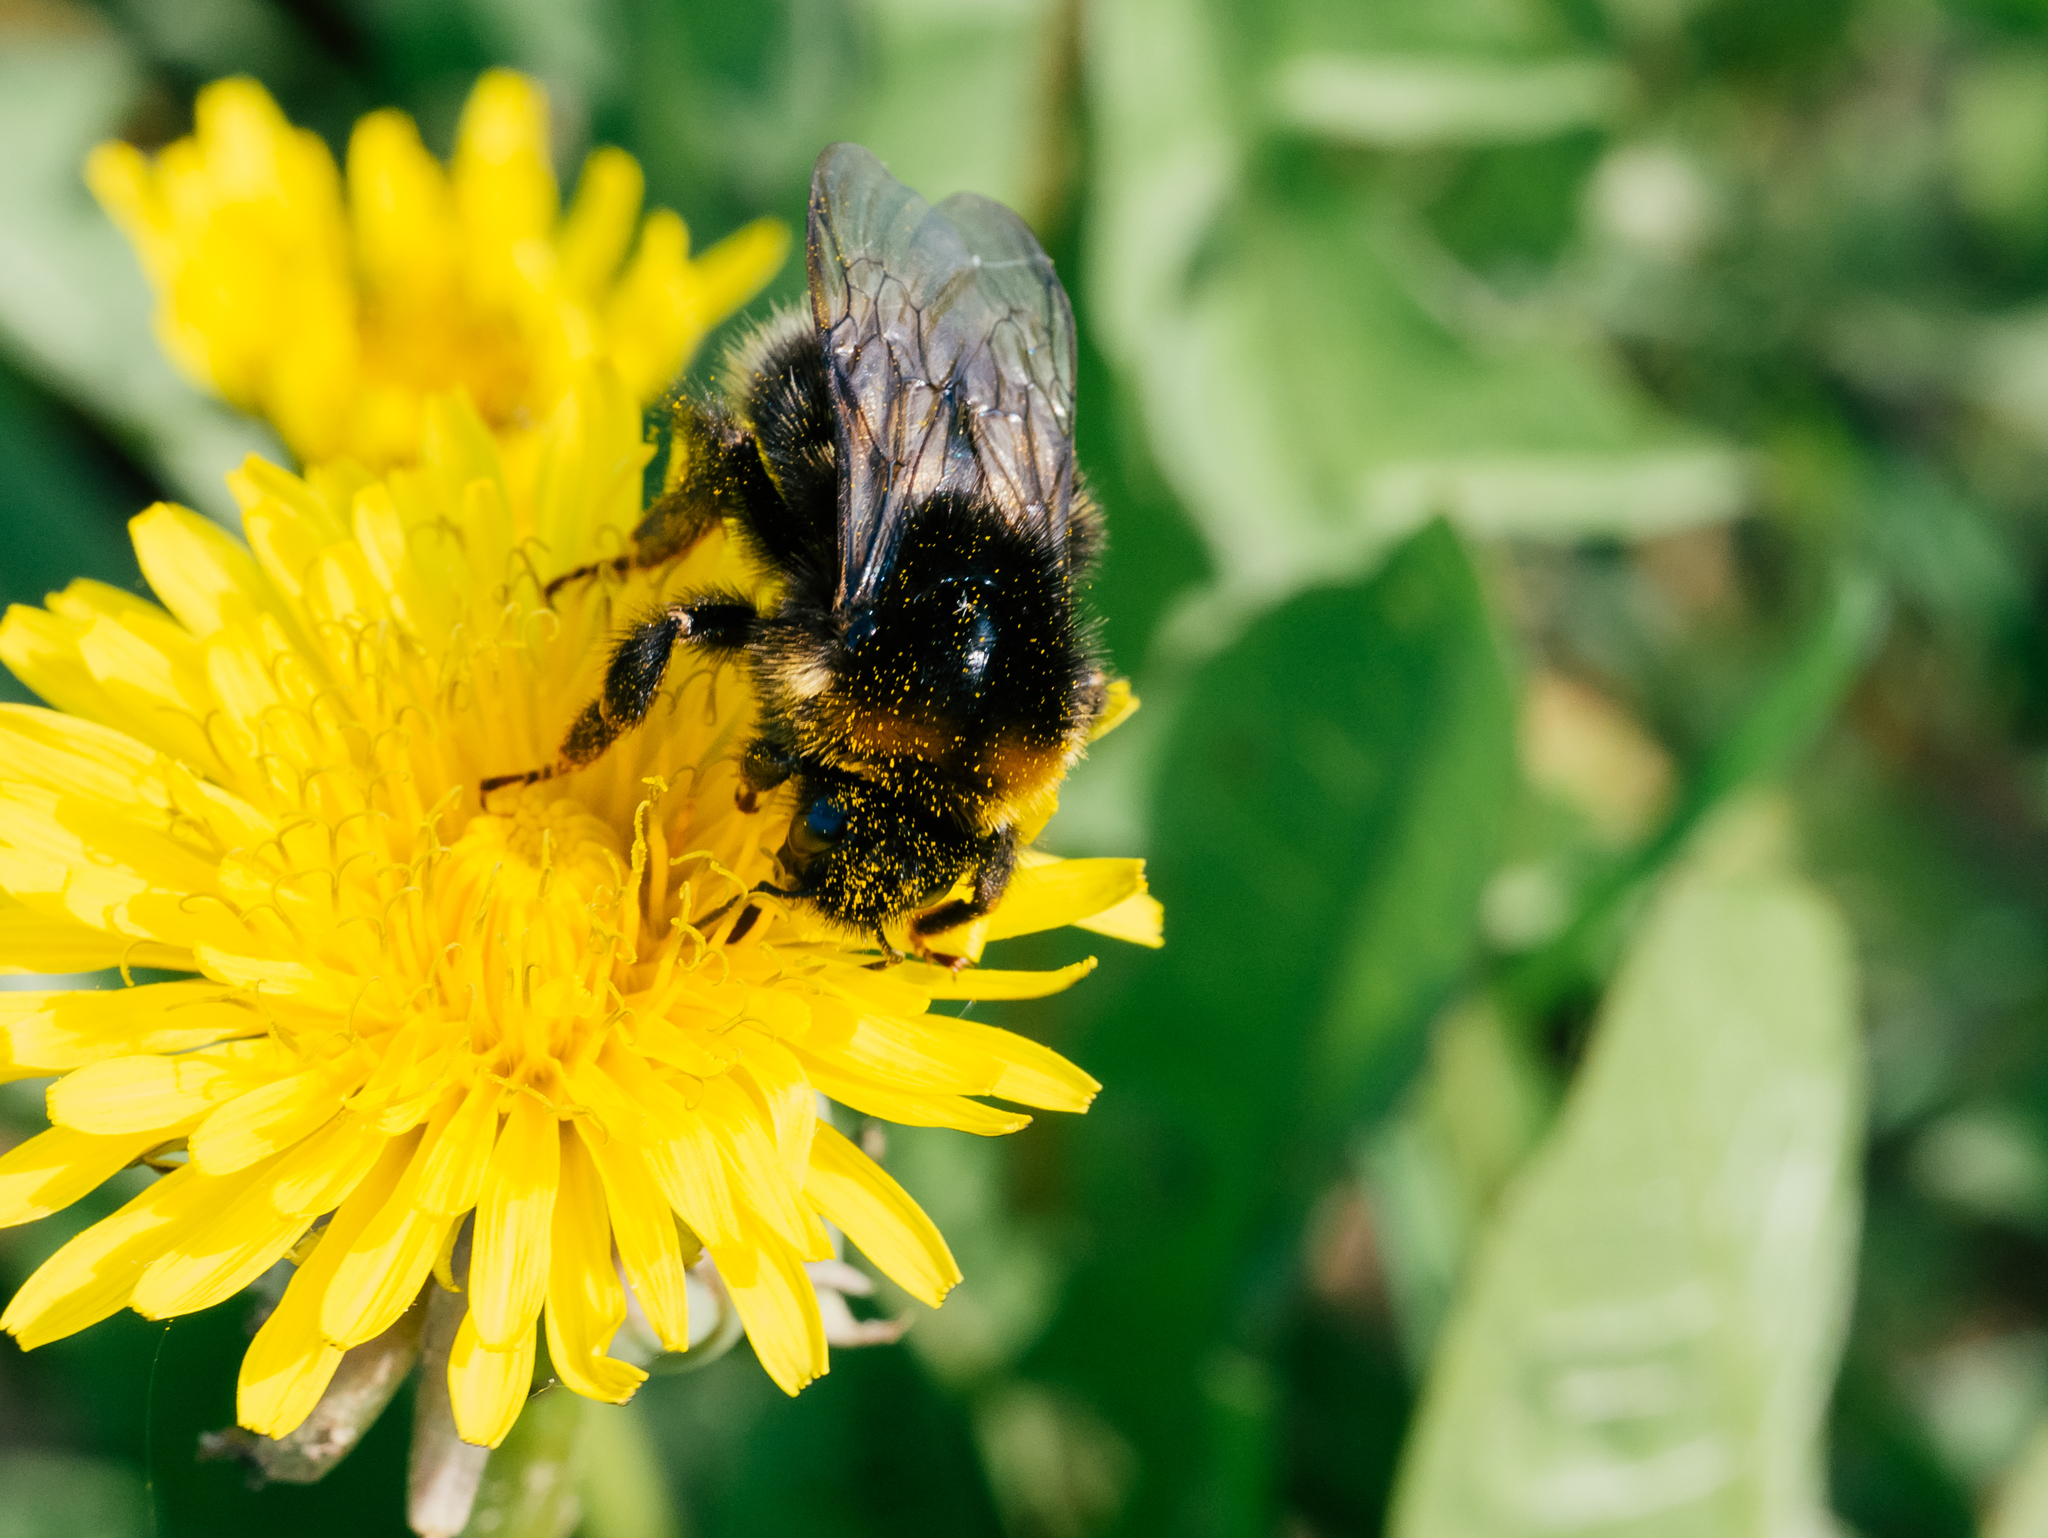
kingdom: Animalia
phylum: Arthropoda
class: Insecta
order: Hymenoptera
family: Apidae
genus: Bombus
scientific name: Bombus
